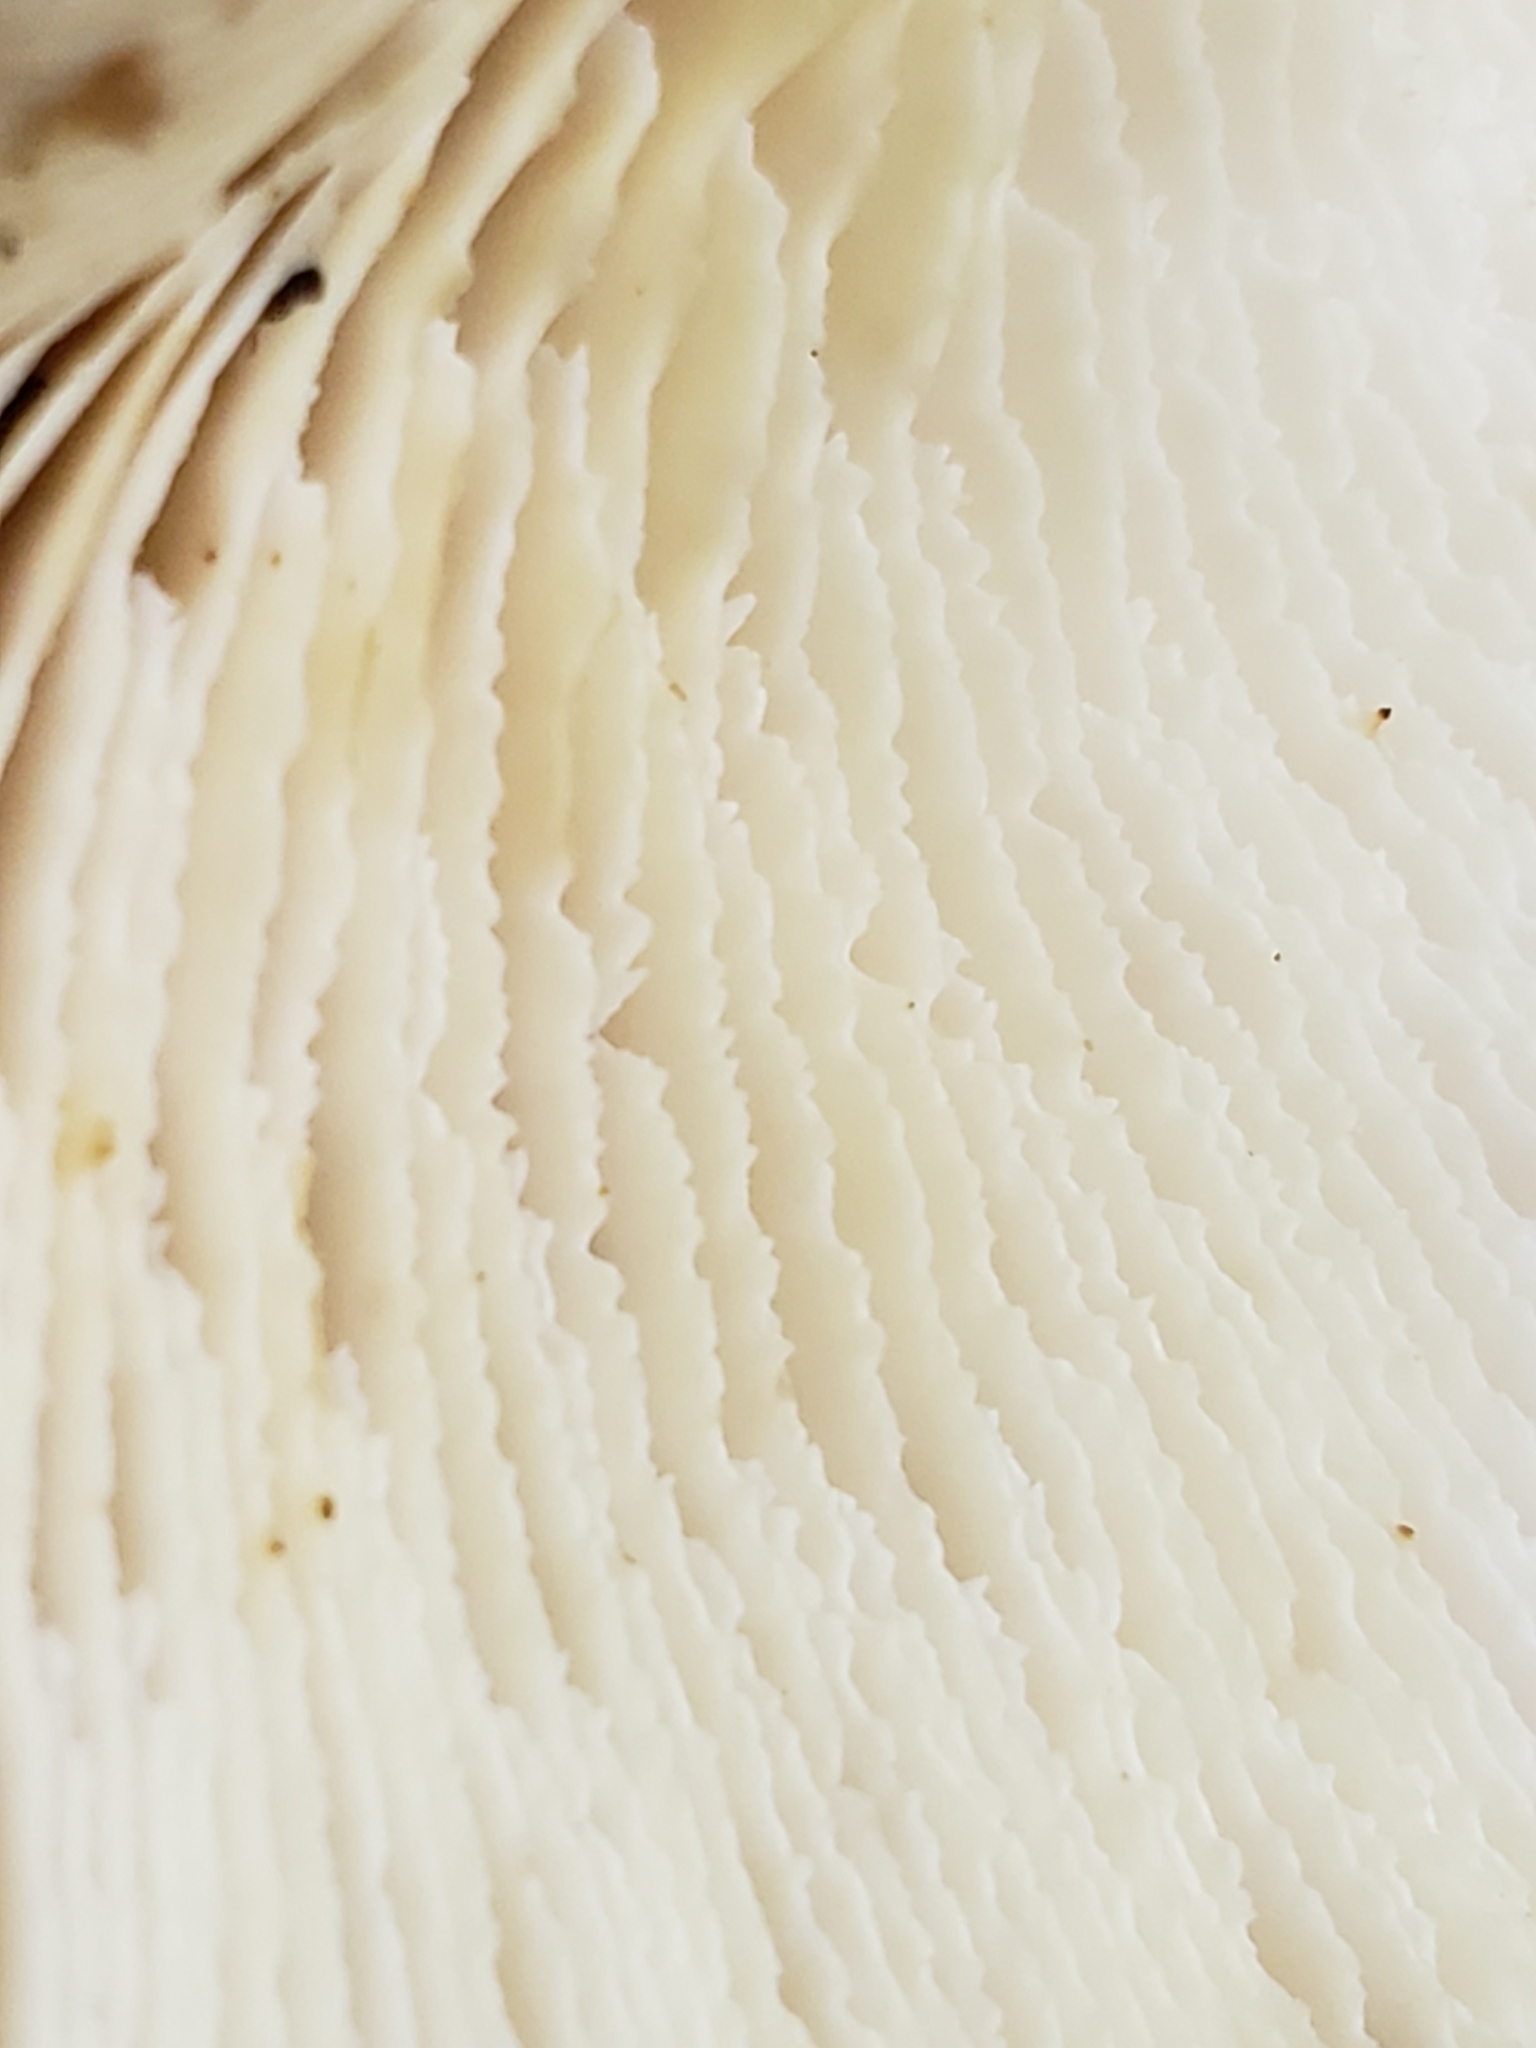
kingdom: Fungi
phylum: Basidiomycota
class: Agaricomycetes
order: Russulales
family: Auriscalpiaceae
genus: Lentinellus
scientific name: Lentinellus ursinus
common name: Bear lentinus
